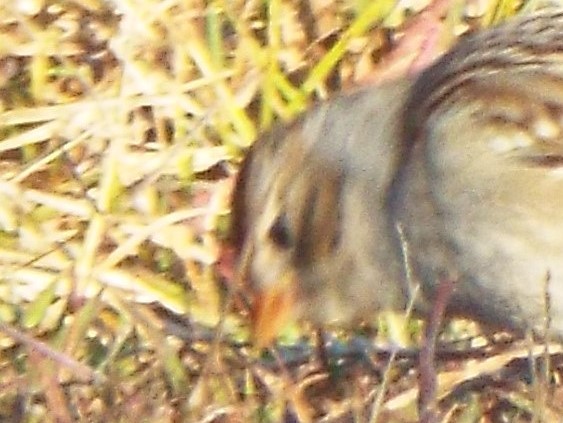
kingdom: Animalia
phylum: Chordata
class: Aves
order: Passeriformes
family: Passerellidae
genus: Zonotrichia
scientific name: Zonotrichia leucophrys
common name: White-crowned sparrow
